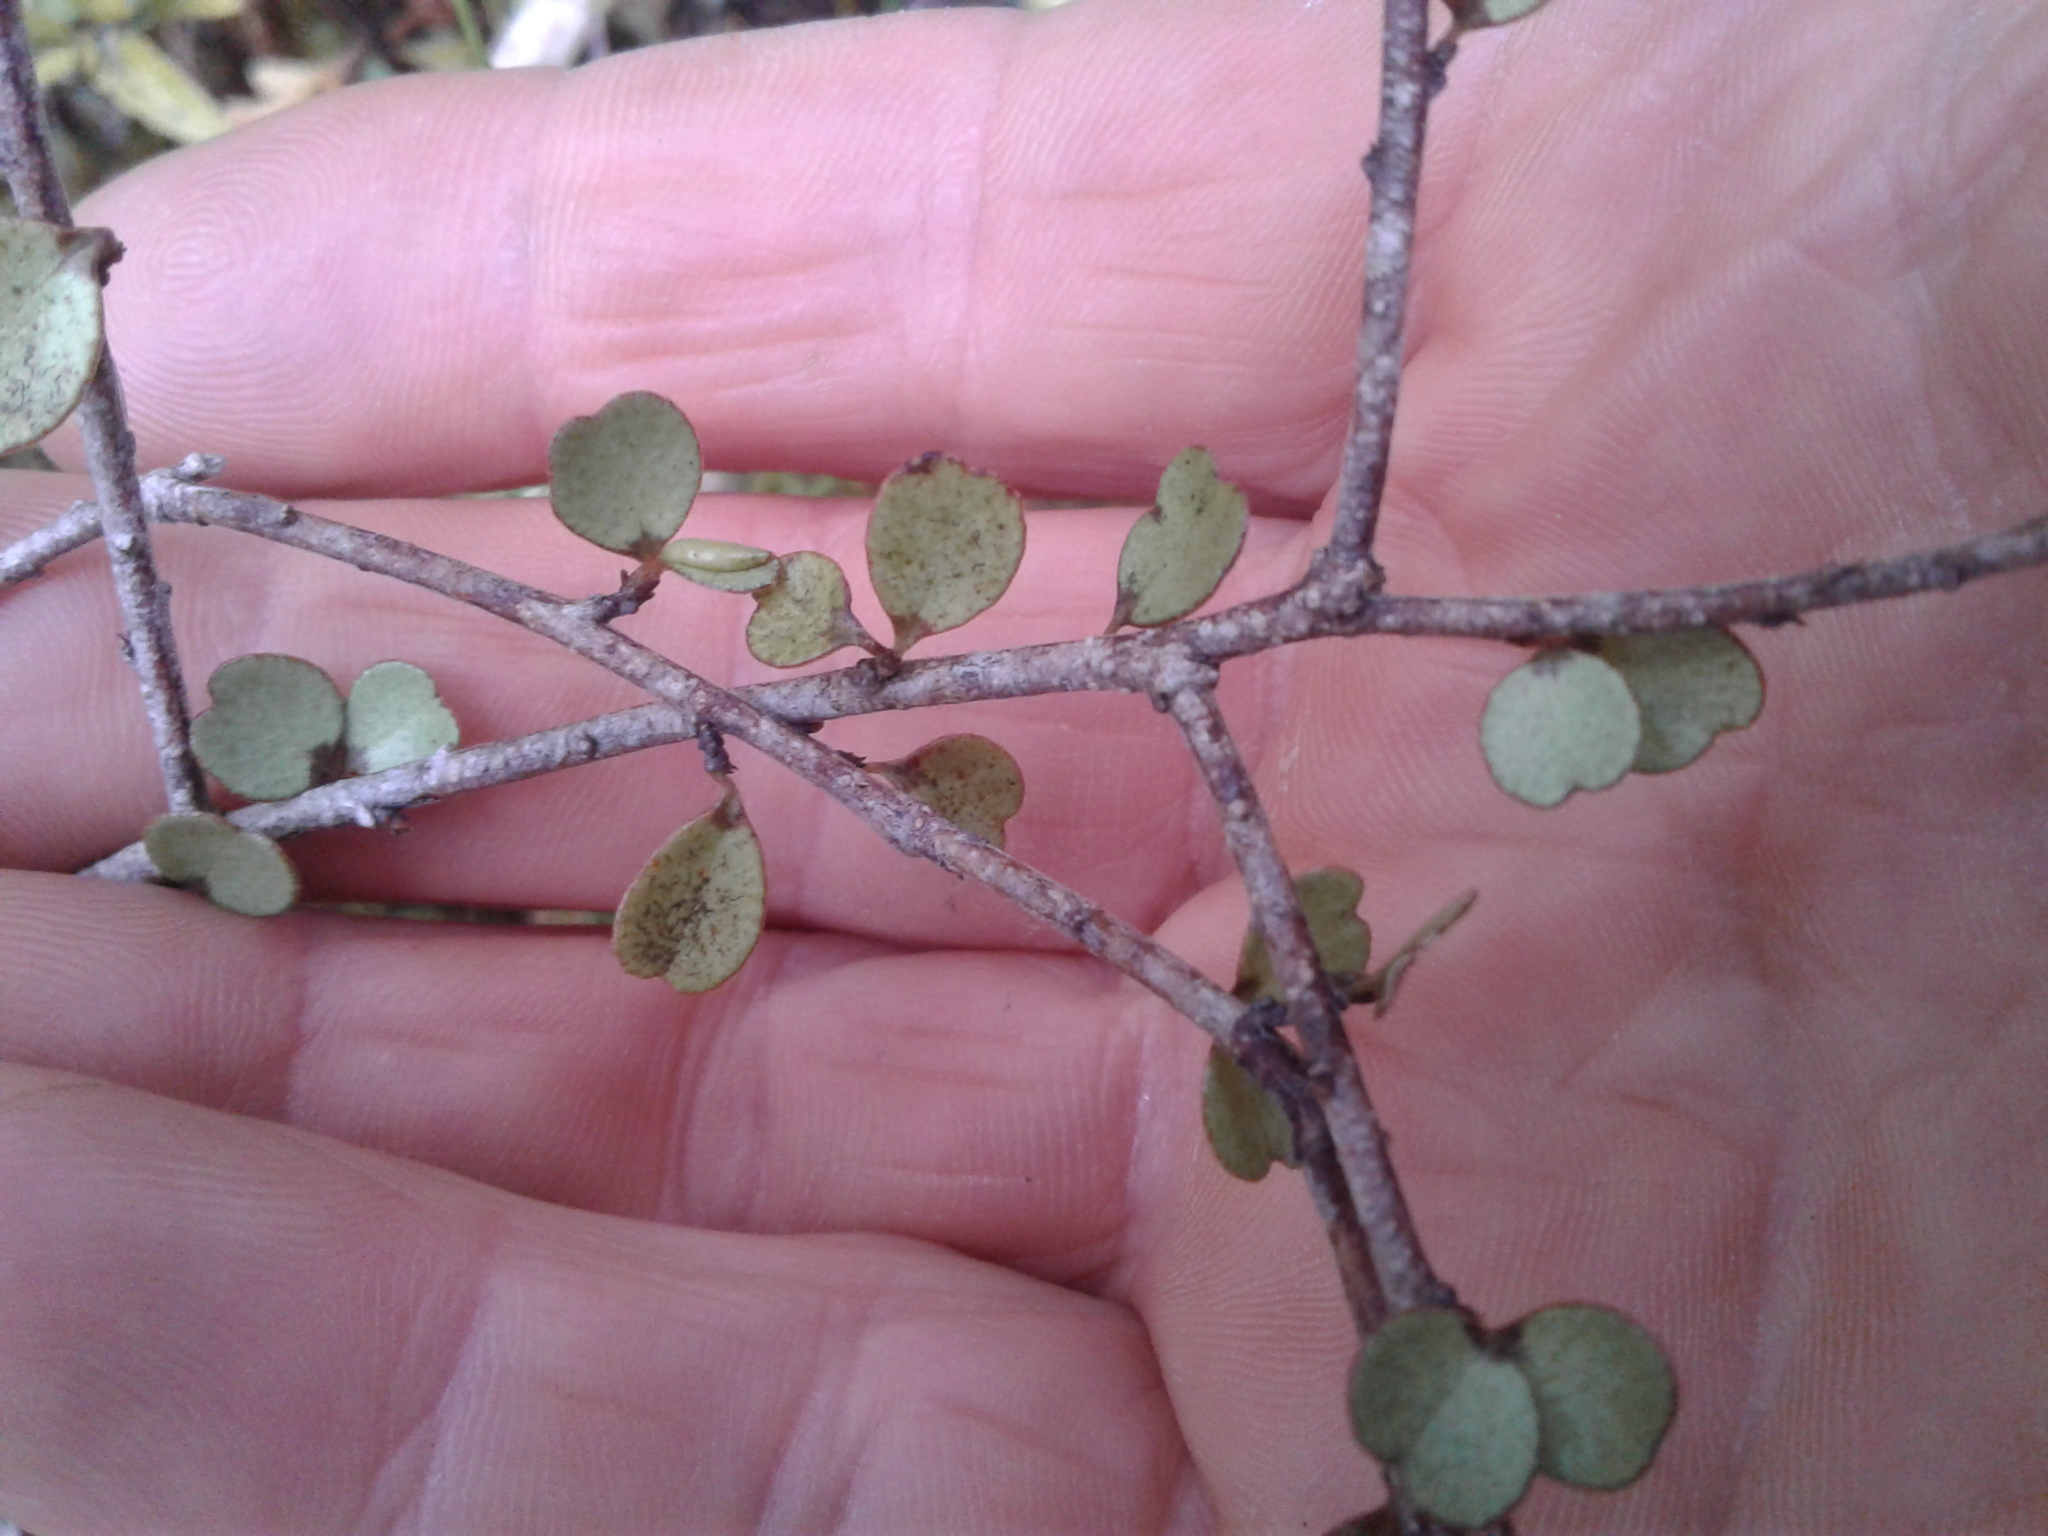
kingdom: Plantae
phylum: Tracheophyta
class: Magnoliopsida
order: Ericales
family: Primulaceae
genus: Myrsine
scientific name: Myrsine divaricata
